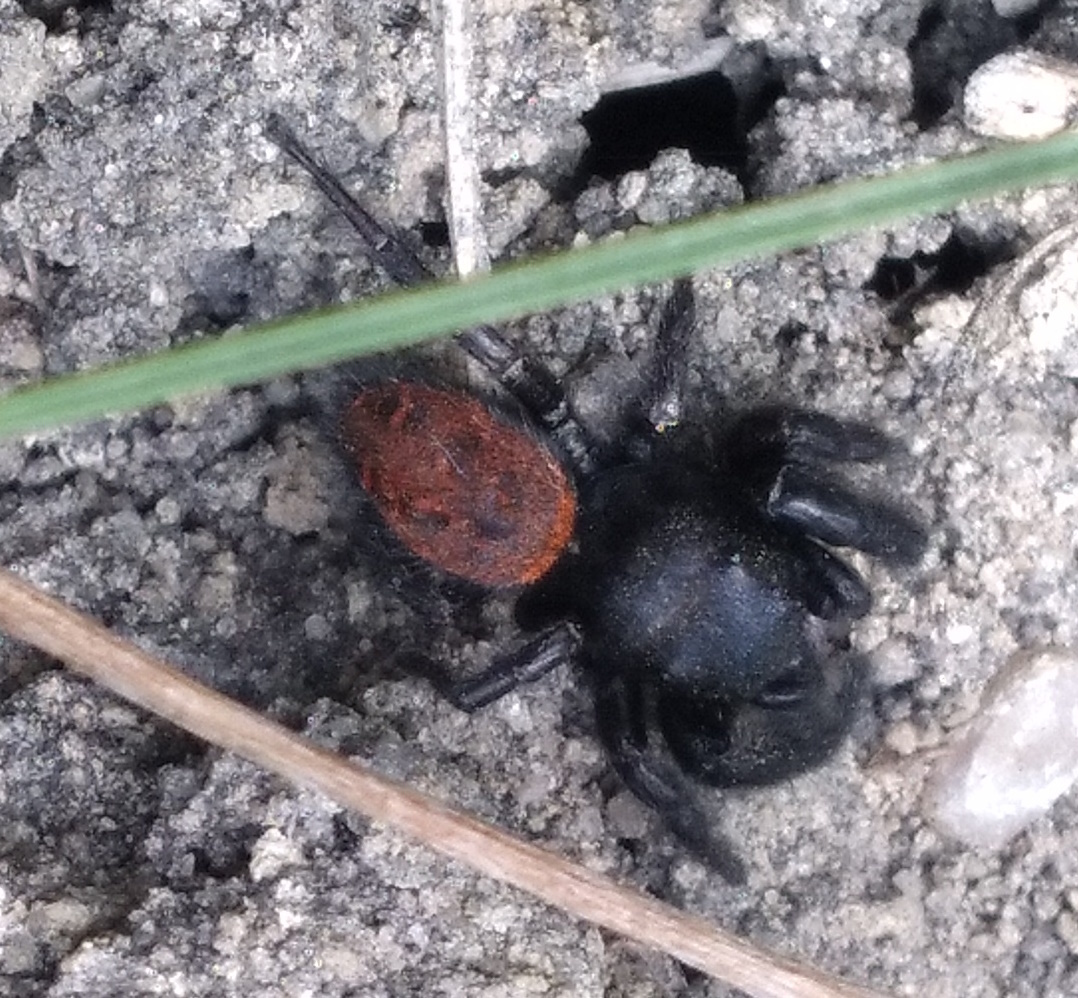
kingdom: Animalia
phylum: Arthropoda
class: Arachnida
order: Araneae
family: Salticidae
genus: Phidippus
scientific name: Phidippus cryptus
